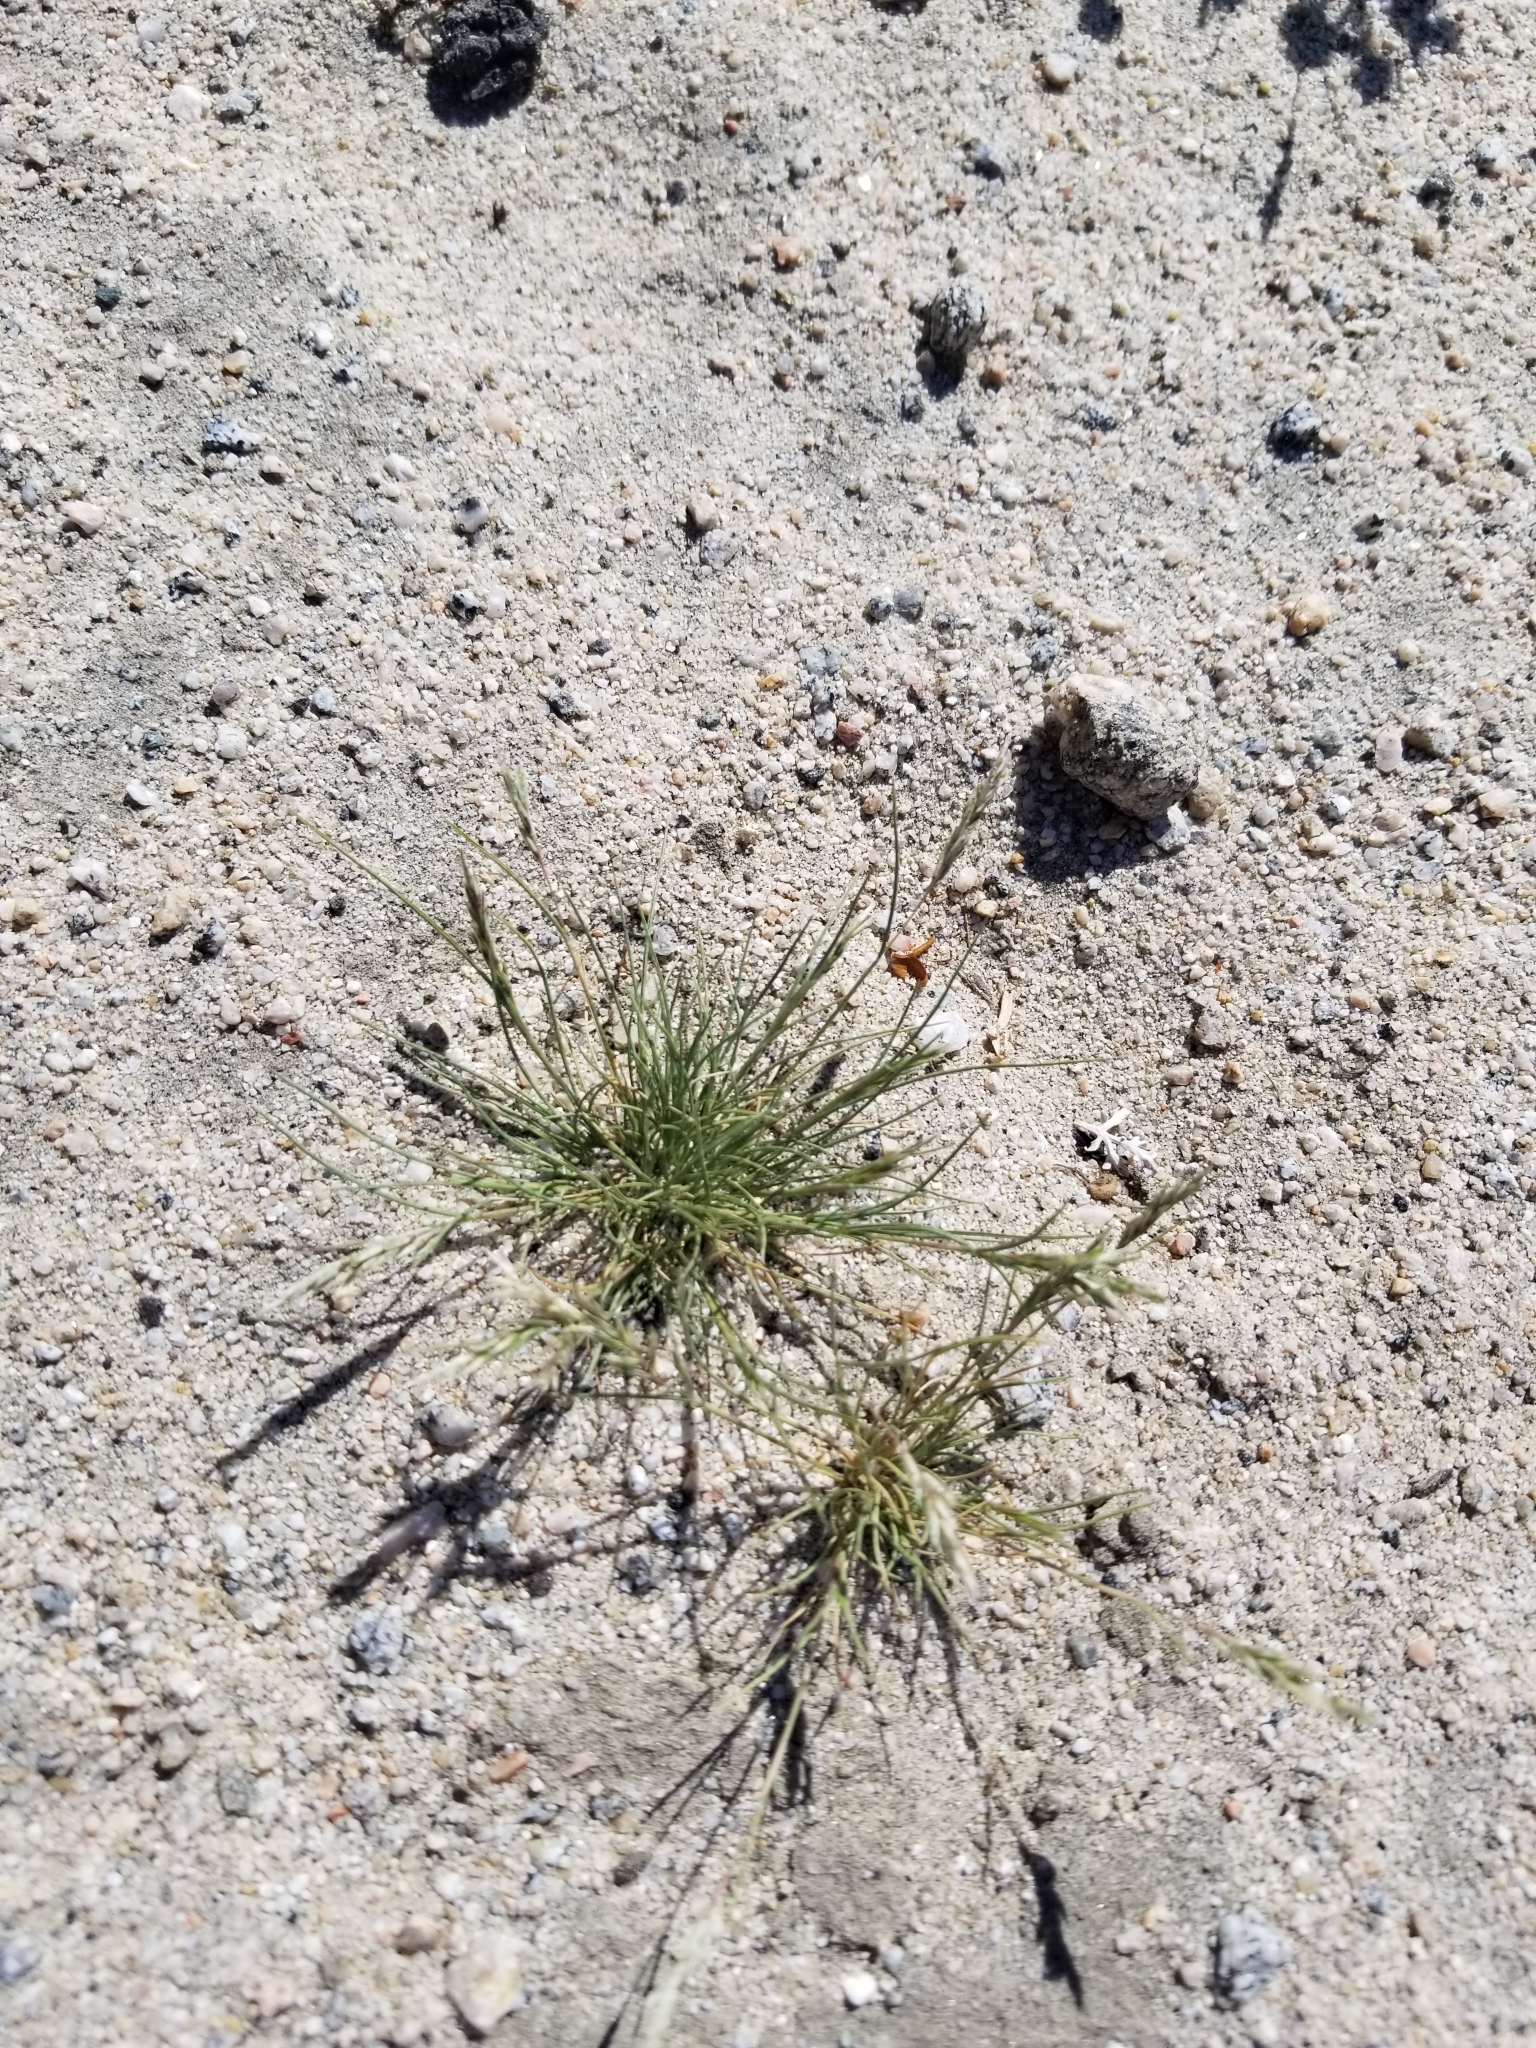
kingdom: Plantae
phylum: Tracheophyta
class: Liliopsida
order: Poales
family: Poaceae
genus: Schismus
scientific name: Schismus barbatus
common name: Kelch-grass
